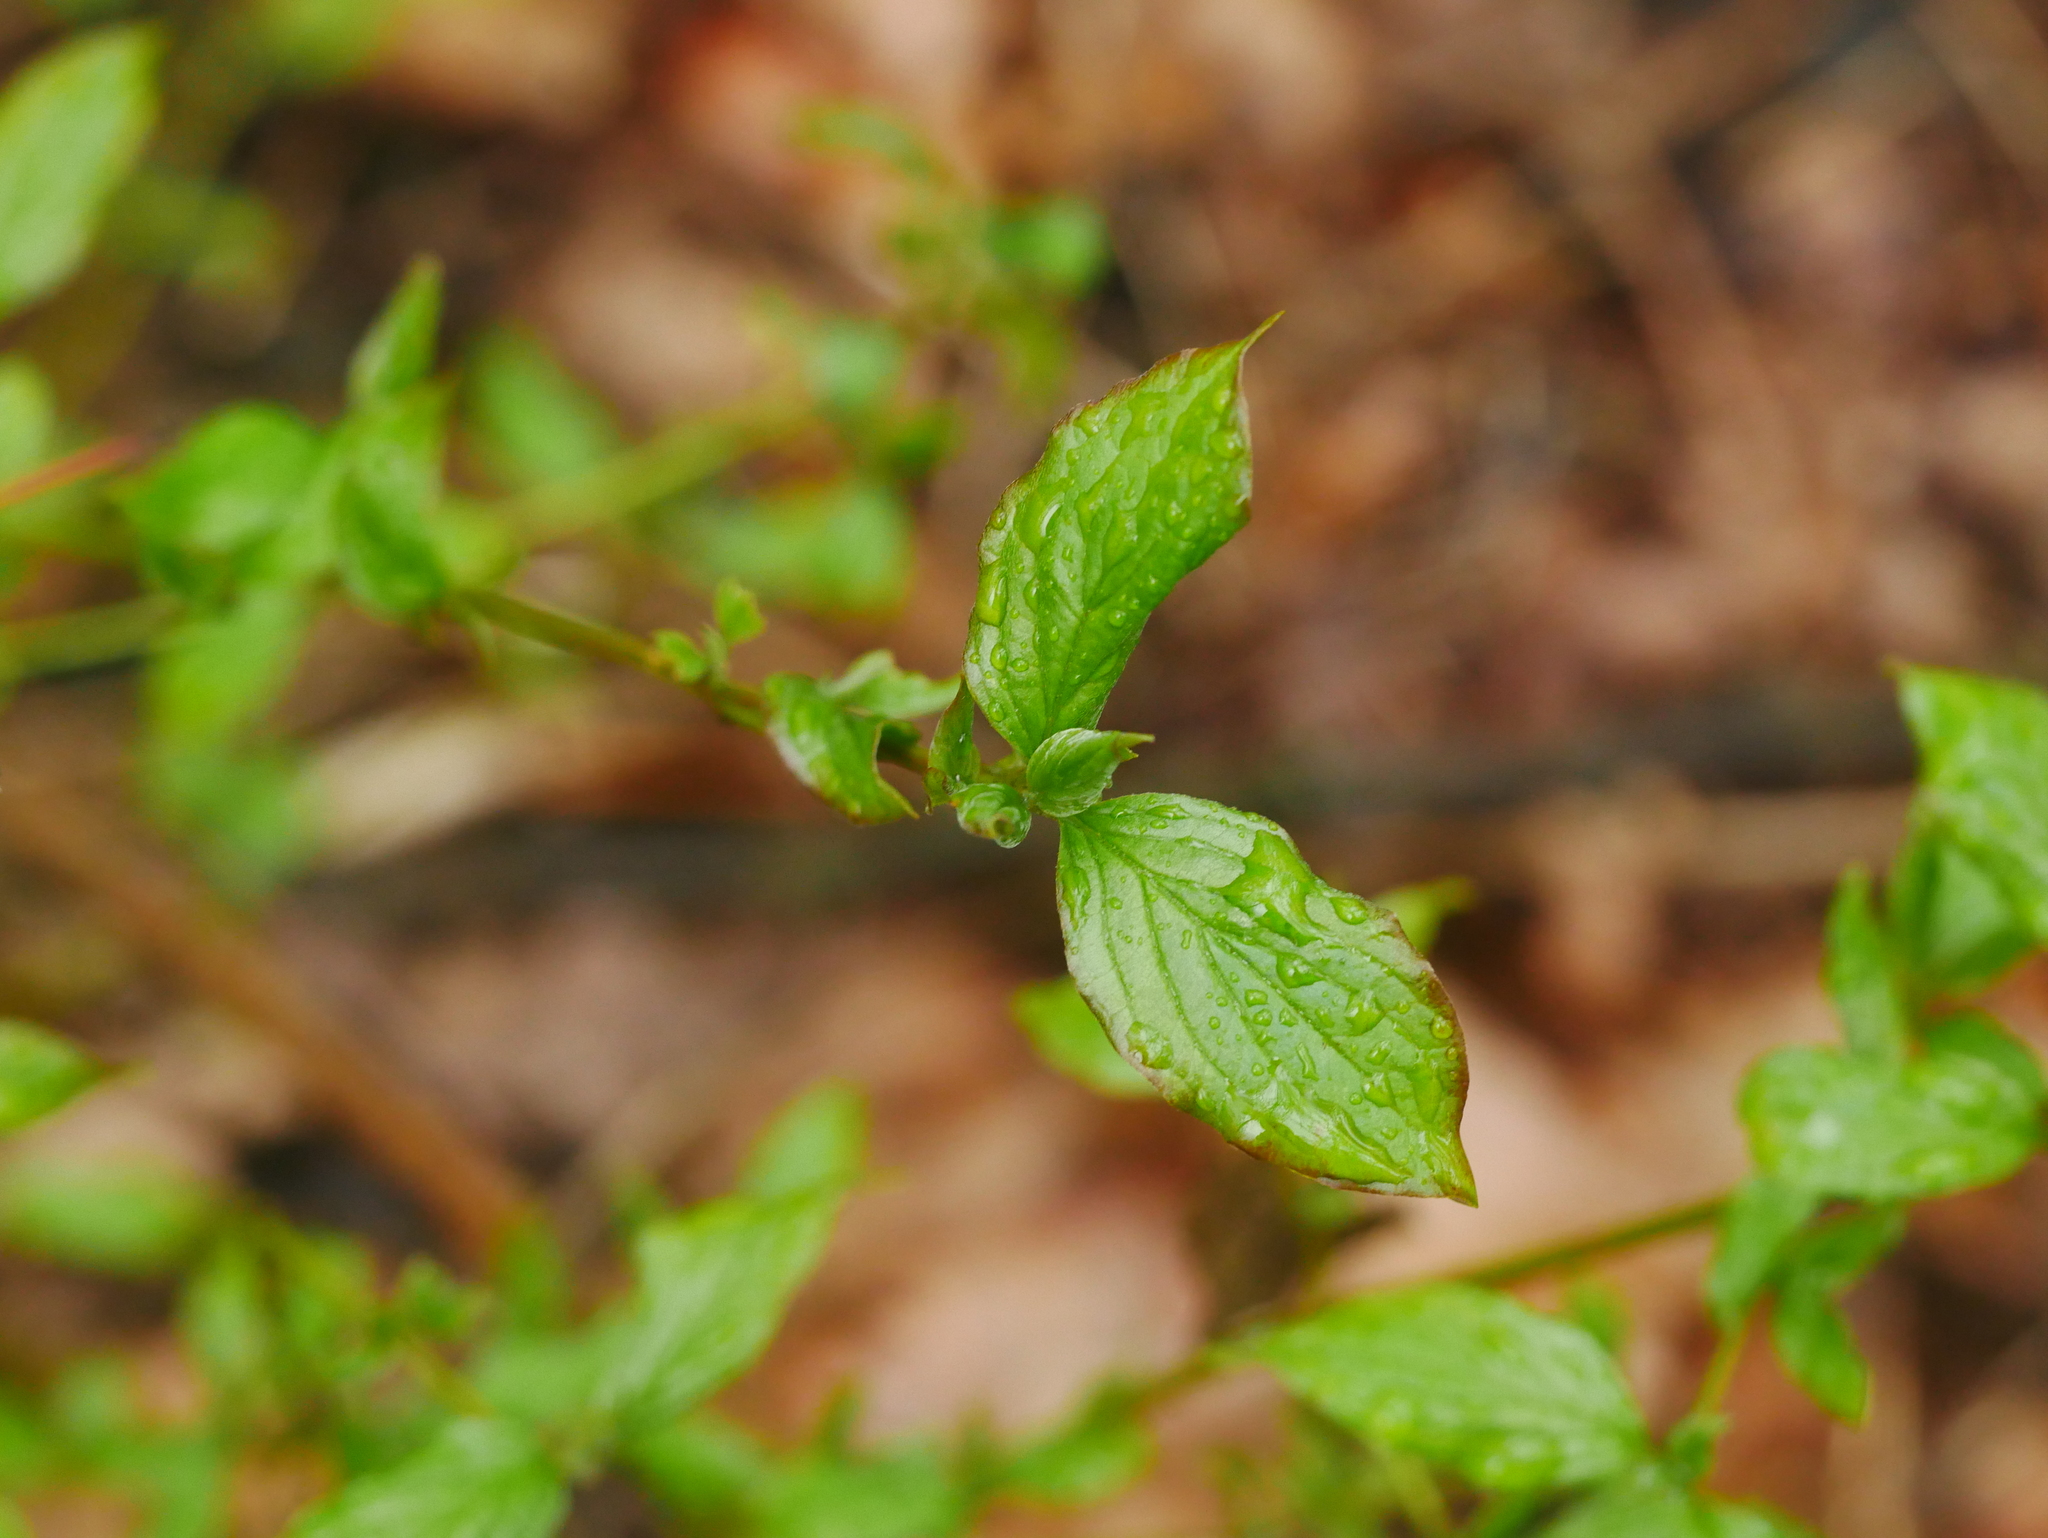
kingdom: Plantae
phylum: Tracheophyta
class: Magnoliopsida
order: Cornales
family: Cornaceae
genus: Cornus
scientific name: Cornus sanguinea
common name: Dogwood
